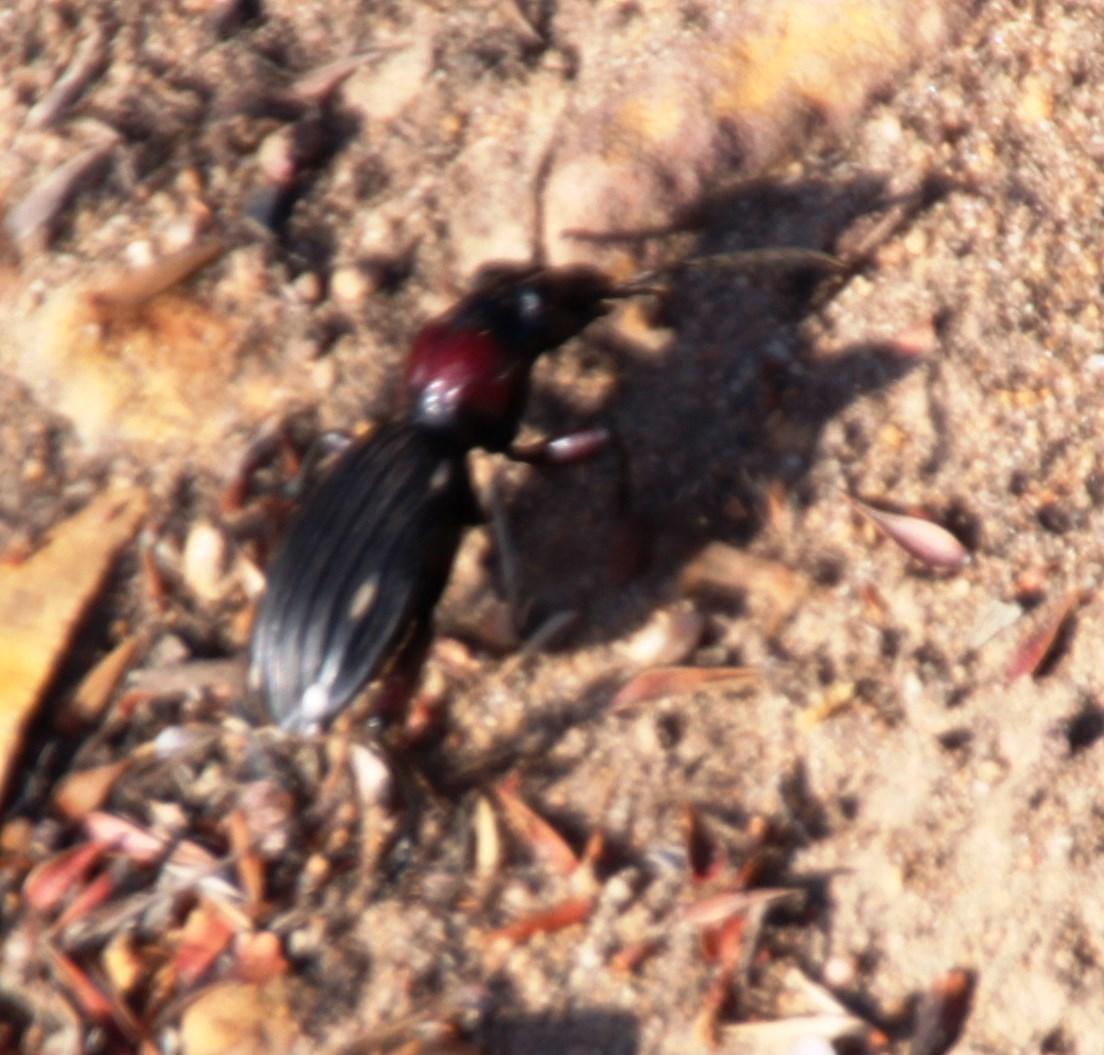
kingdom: Animalia
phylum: Arthropoda
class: Insecta
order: Coleoptera
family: Carabidae
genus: Anthia
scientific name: Anthia decemguttata
